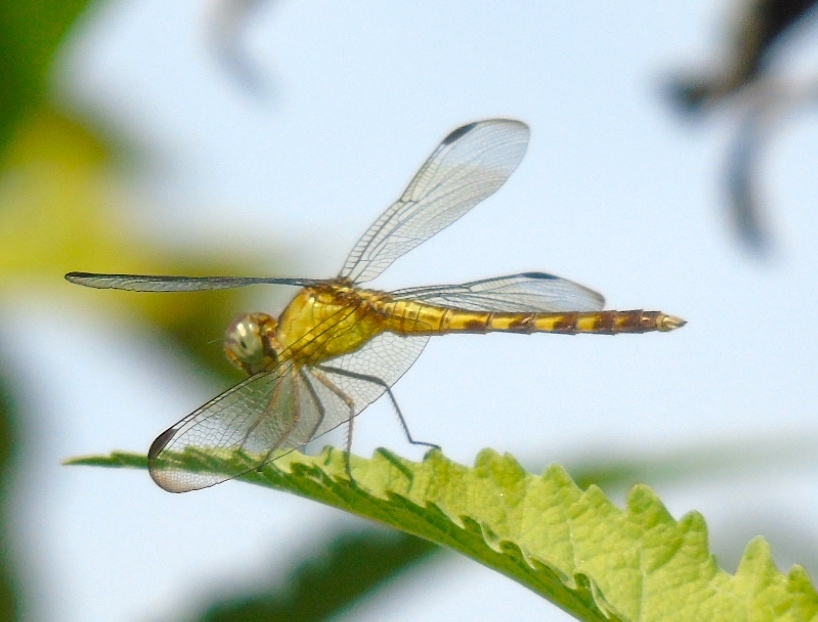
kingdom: Animalia
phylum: Arthropoda
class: Insecta
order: Odonata
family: Libellulidae
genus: Erythrodiplax
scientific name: Erythrodiplax
